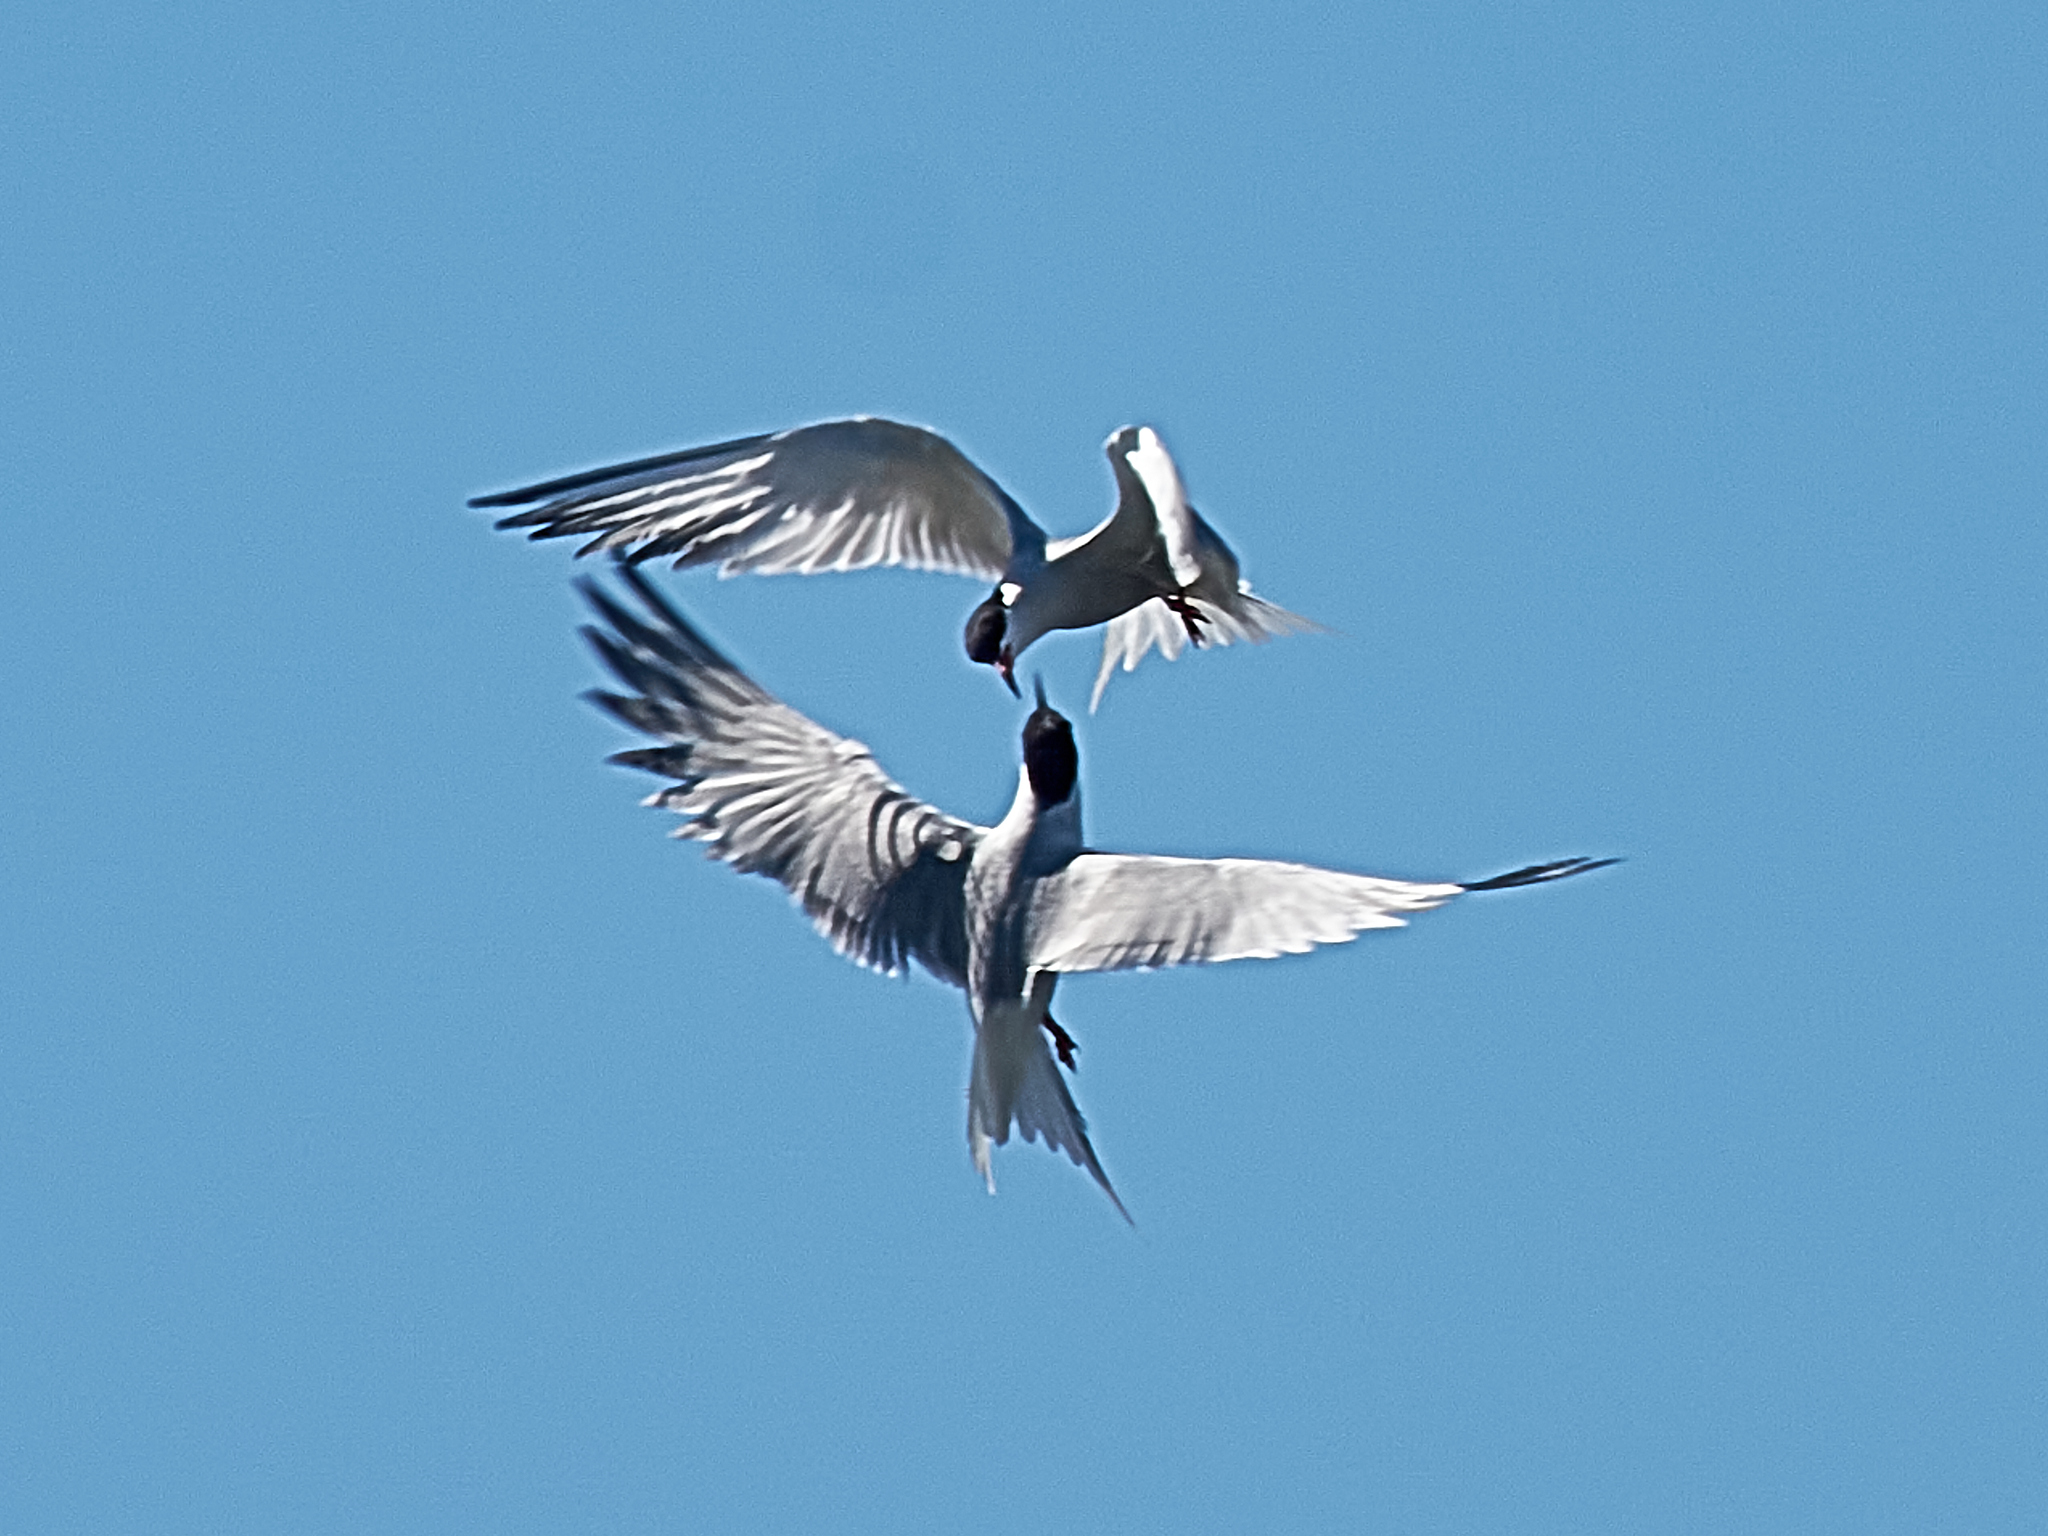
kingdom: Animalia
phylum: Chordata
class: Aves
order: Charadriiformes
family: Laridae
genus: Sterna
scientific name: Sterna hirundo
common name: Common tern
